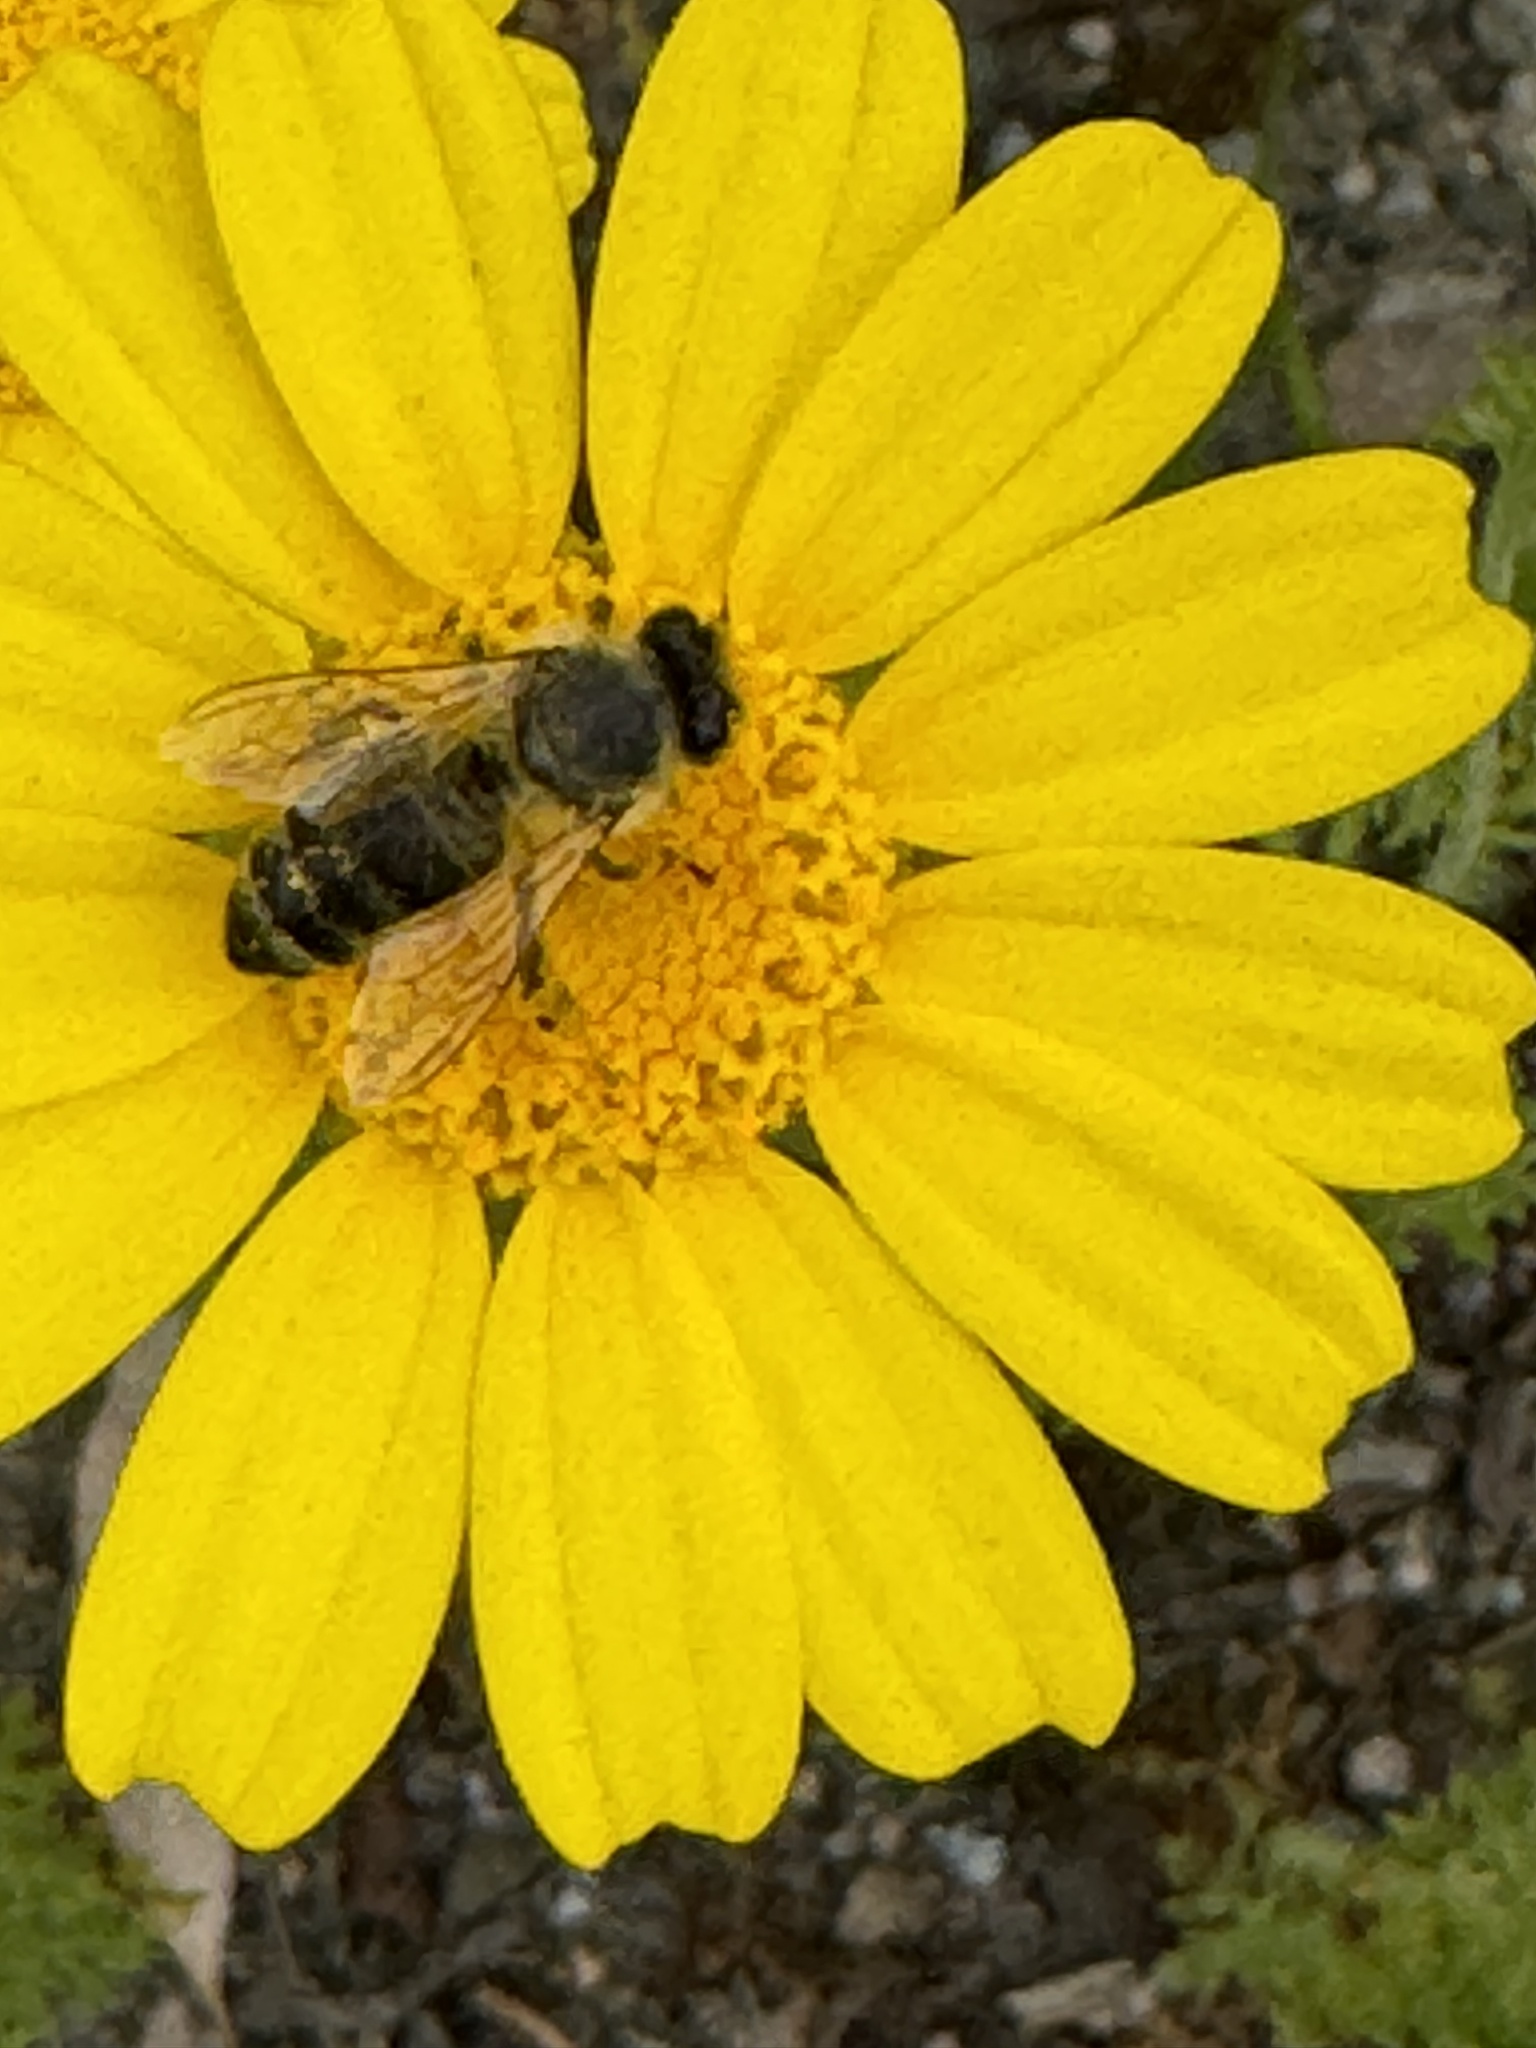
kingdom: Animalia
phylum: Arthropoda
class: Insecta
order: Hymenoptera
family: Apidae
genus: Apis
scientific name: Apis mellifera
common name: Honey bee
